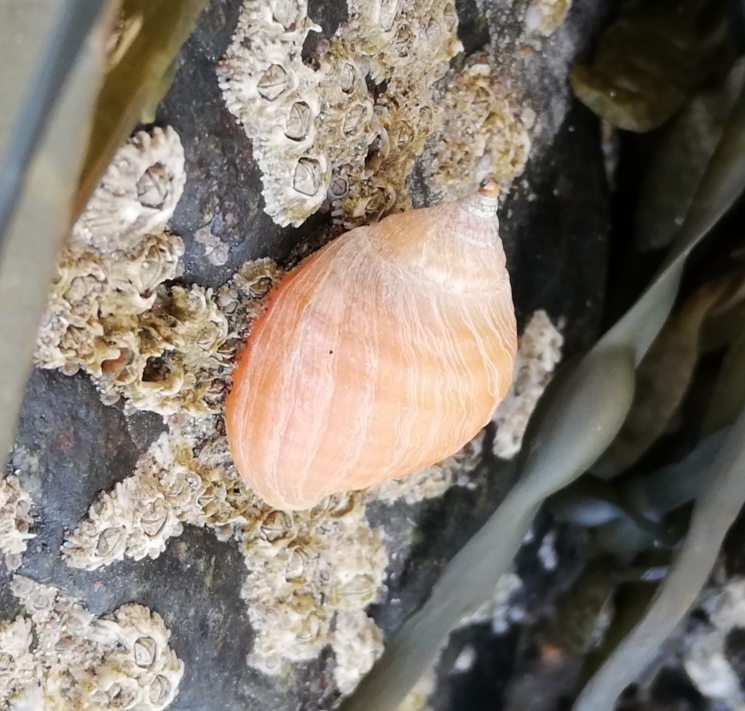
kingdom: Animalia
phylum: Mollusca
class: Gastropoda
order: Neogastropoda
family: Muricidae
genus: Nucella
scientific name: Nucella lapillus
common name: Dog whelk
